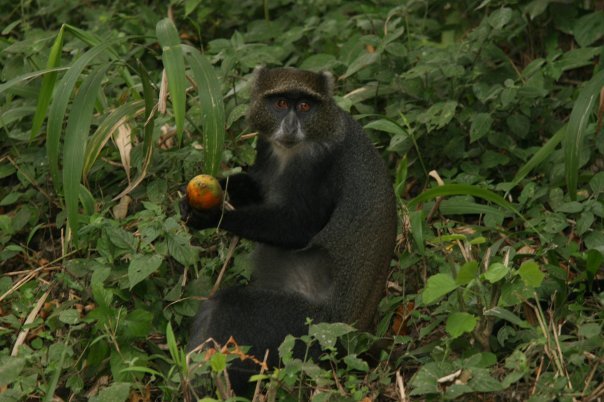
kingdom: Animalia
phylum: Chordata
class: Mammalia
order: Primates
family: Cercopithecidae
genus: Cercopithecus
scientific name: Cercopithecus mitis
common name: Blue monkey
